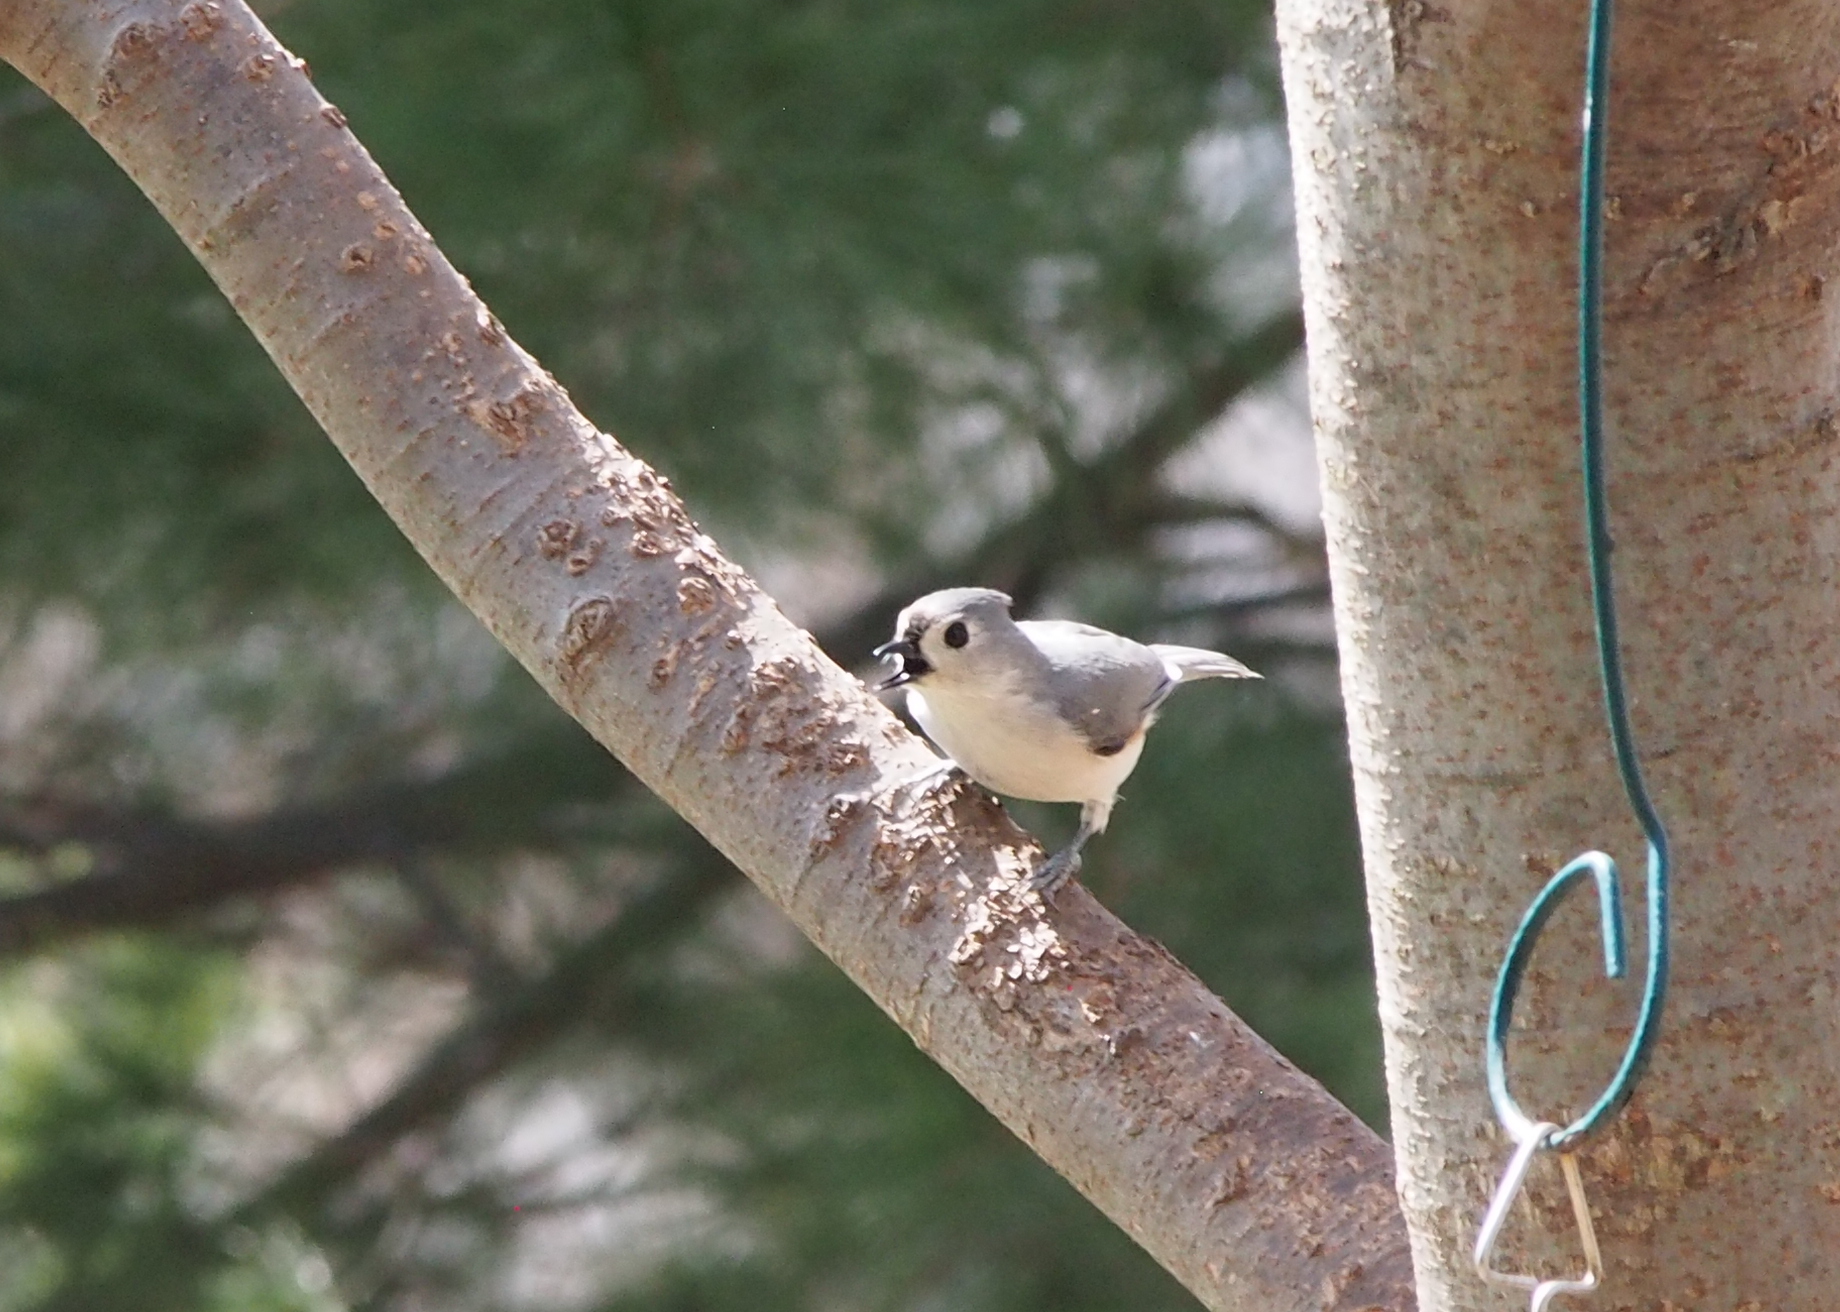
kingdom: Animalia
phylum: Chordata
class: Aves
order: Passeriformes
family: Paridae
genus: Baeolophus
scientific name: Baeolophus bicolor
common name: Tufted titmouse
